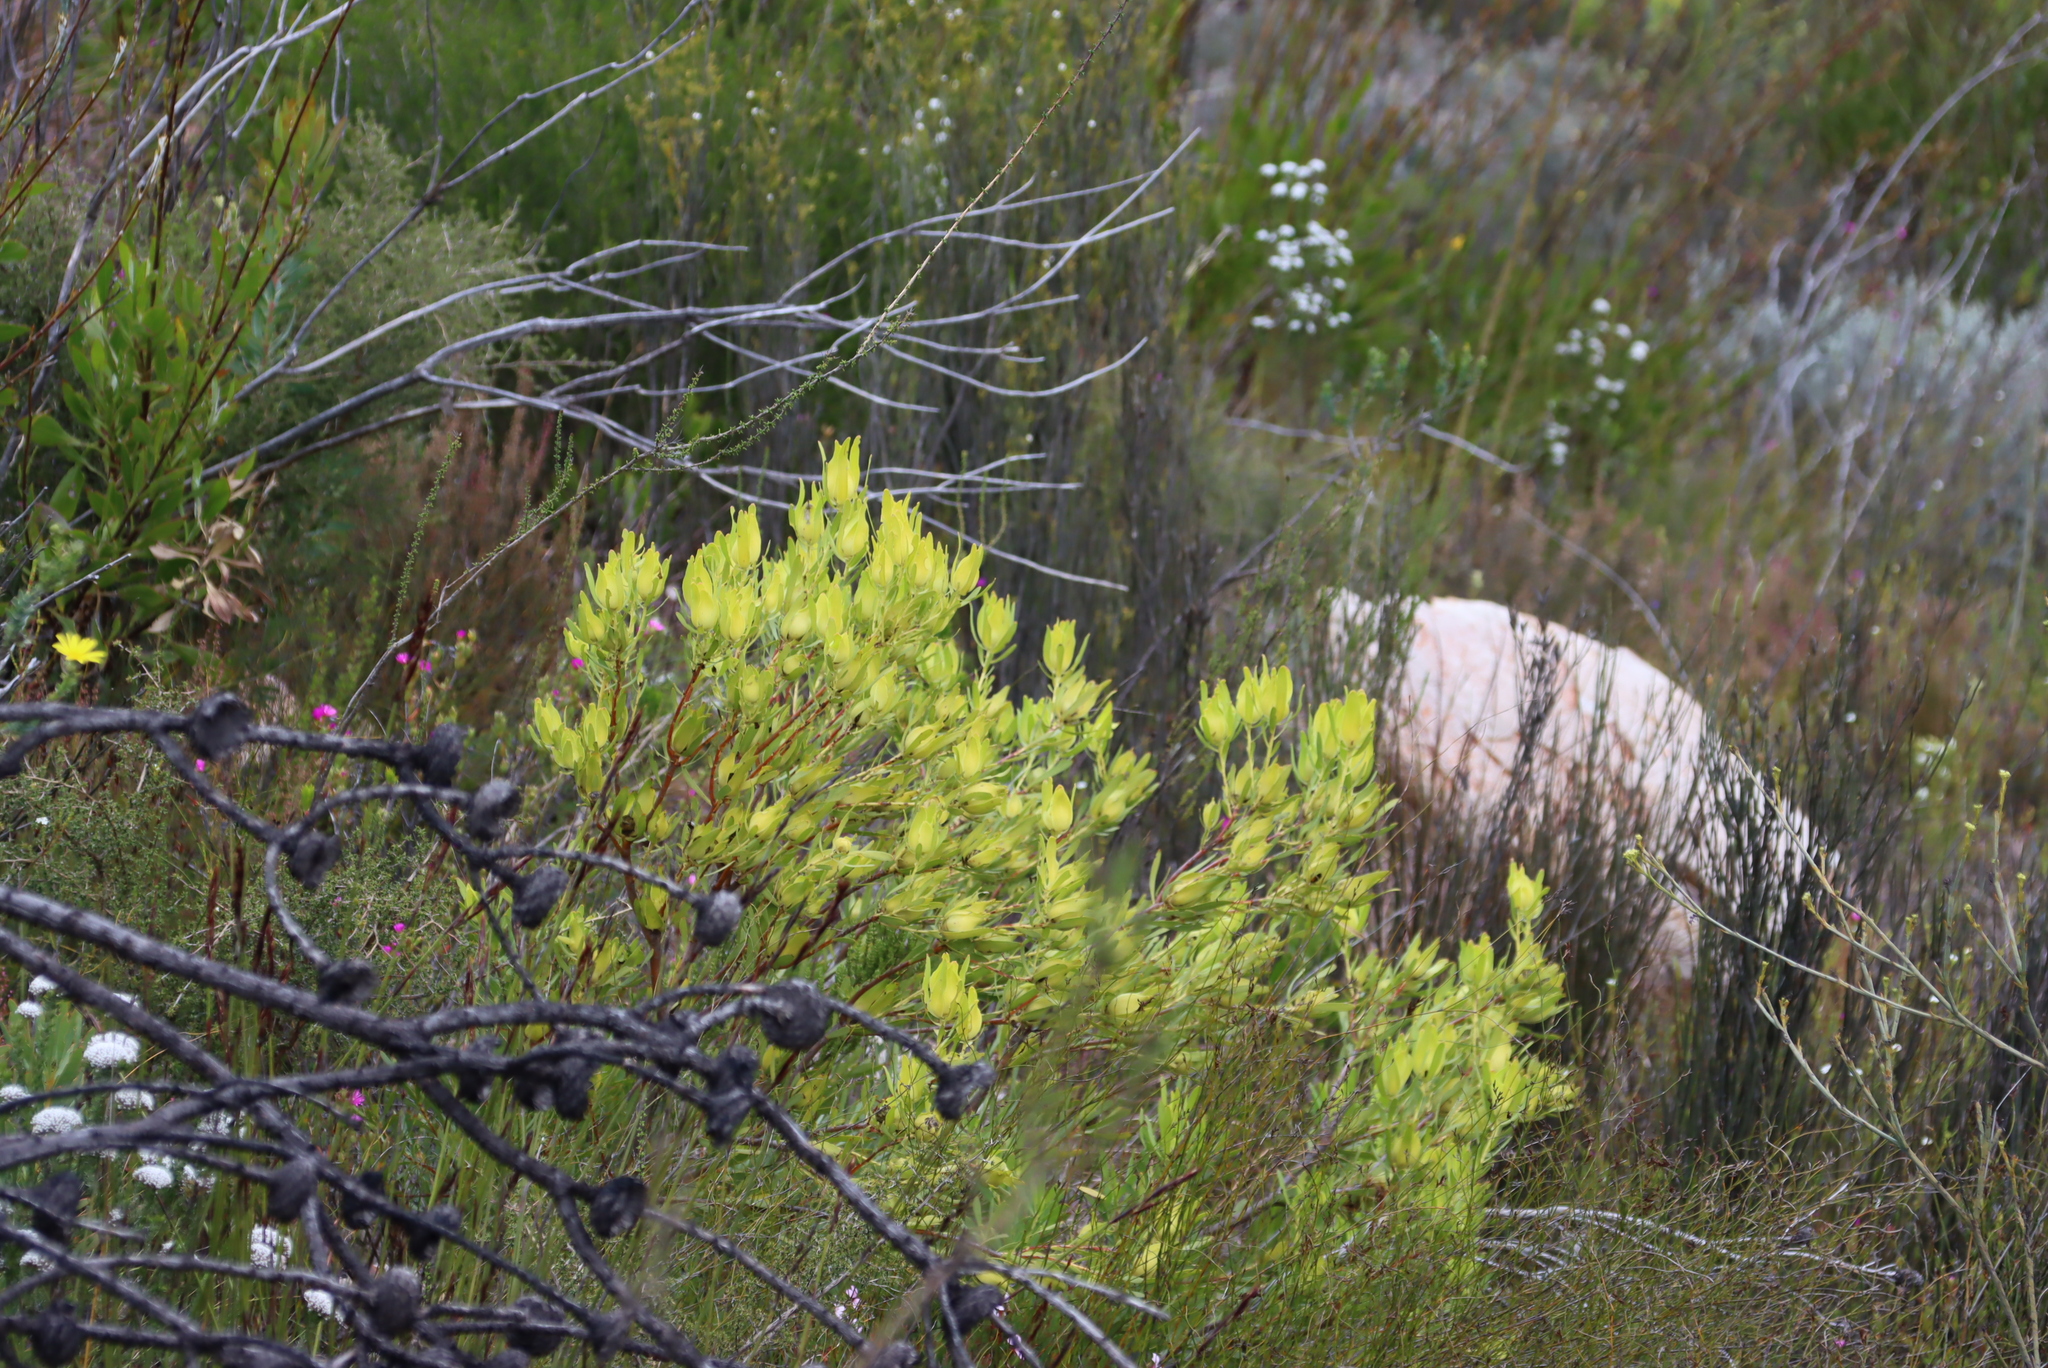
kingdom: Plantae
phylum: Tracheophyta
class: Magnoliopsida
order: Proteales
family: Proteaceae
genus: Leucadendron
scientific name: Leucadendron salignum
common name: Common sunshine conebush
